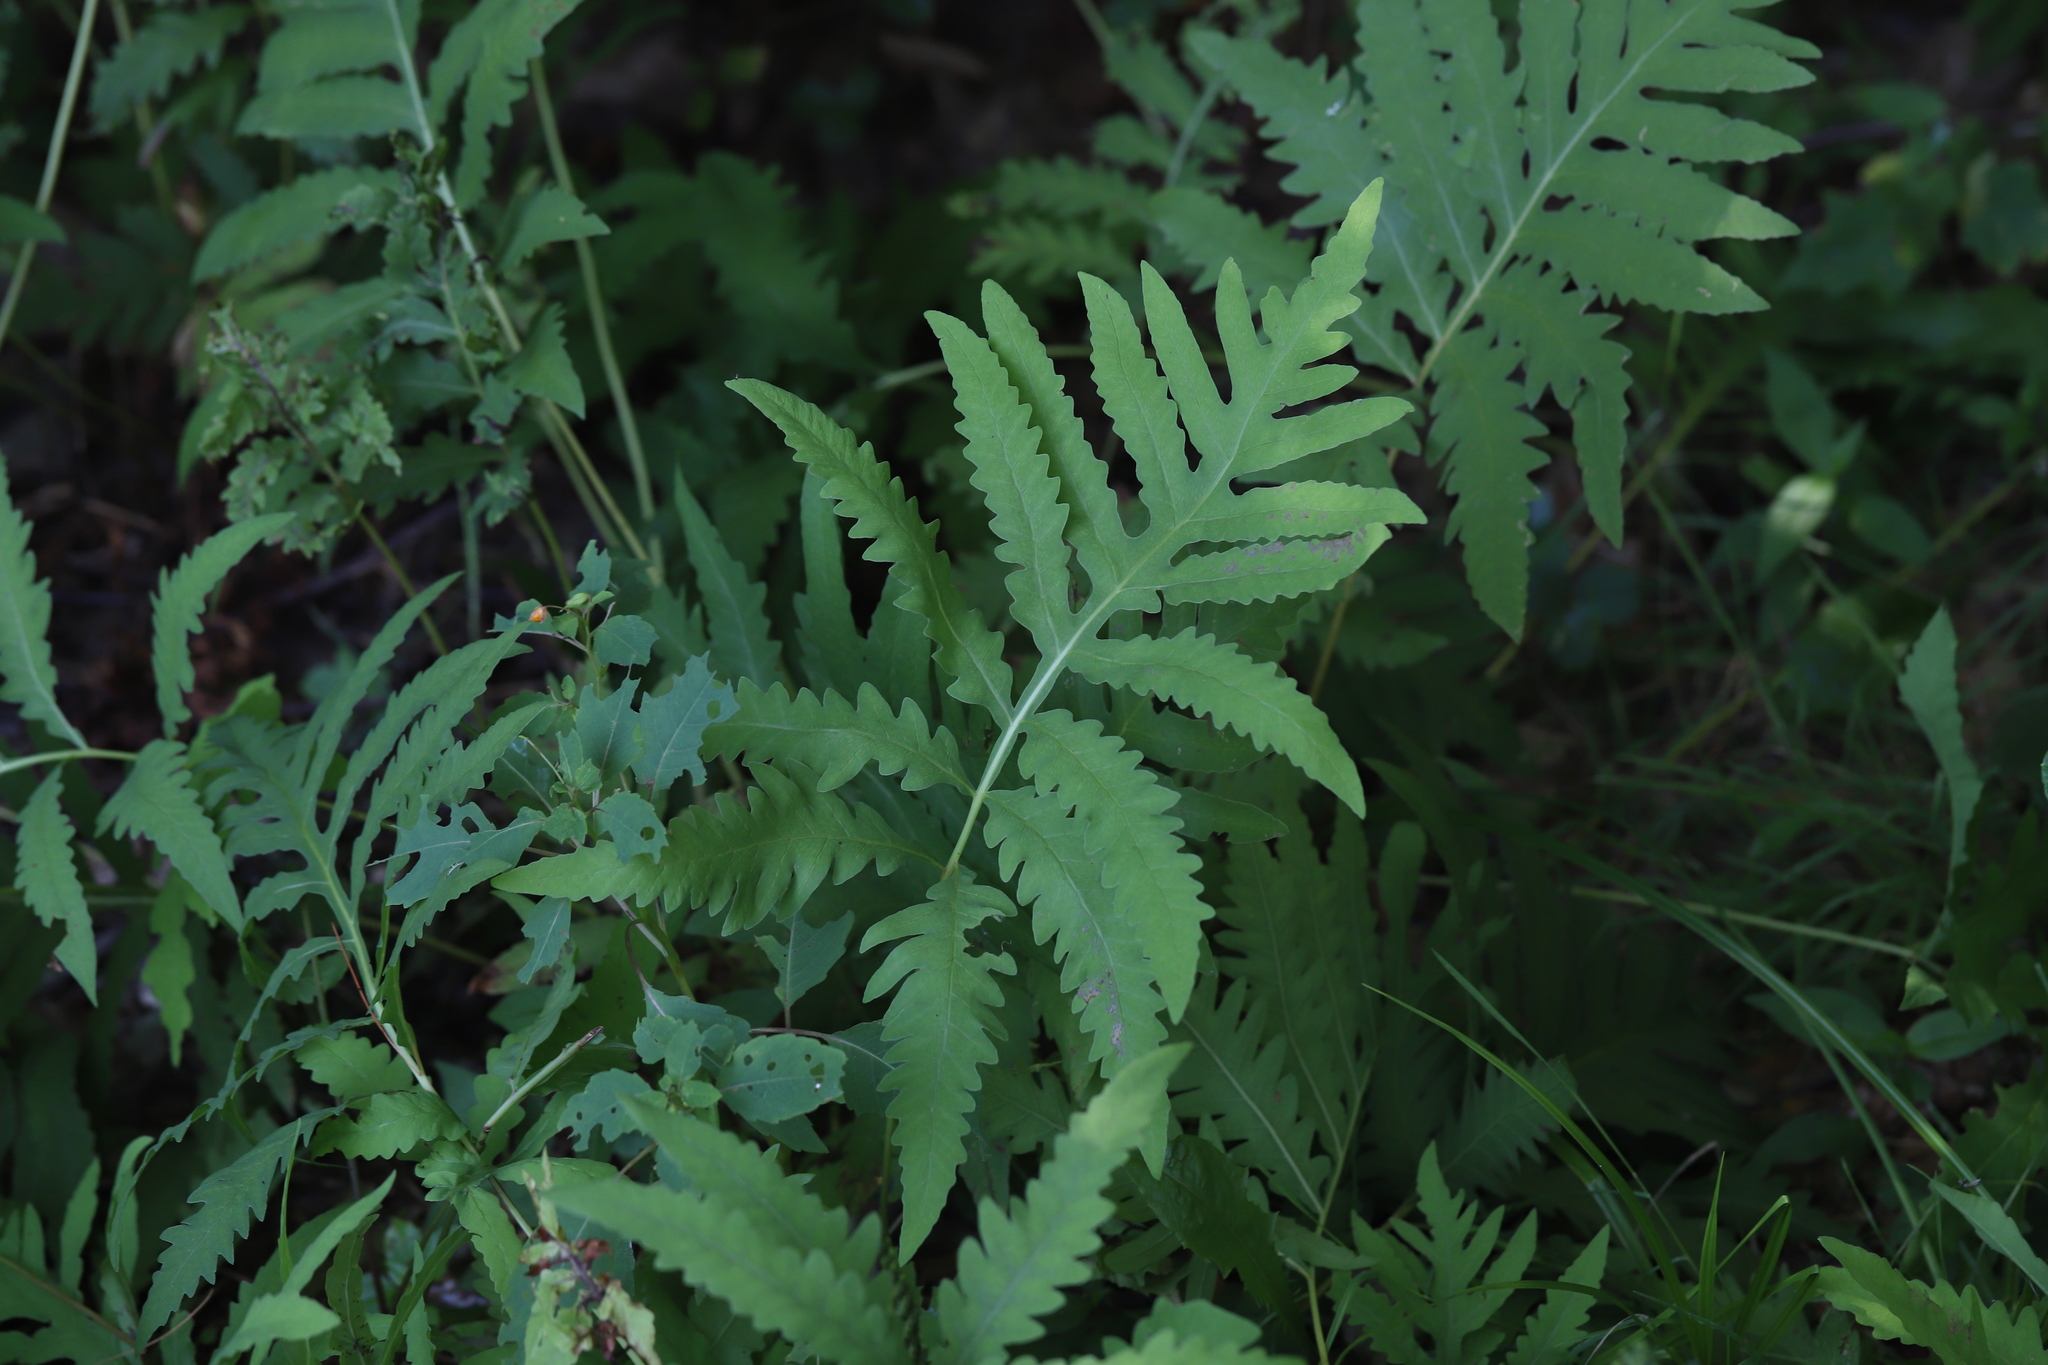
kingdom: Plantae
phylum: Tracheophyta
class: Polypodiopsida
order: Polypodiales
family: Onocleaceae
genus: Onoclea
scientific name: Onoclea sensibilis
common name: Sensitive fern
